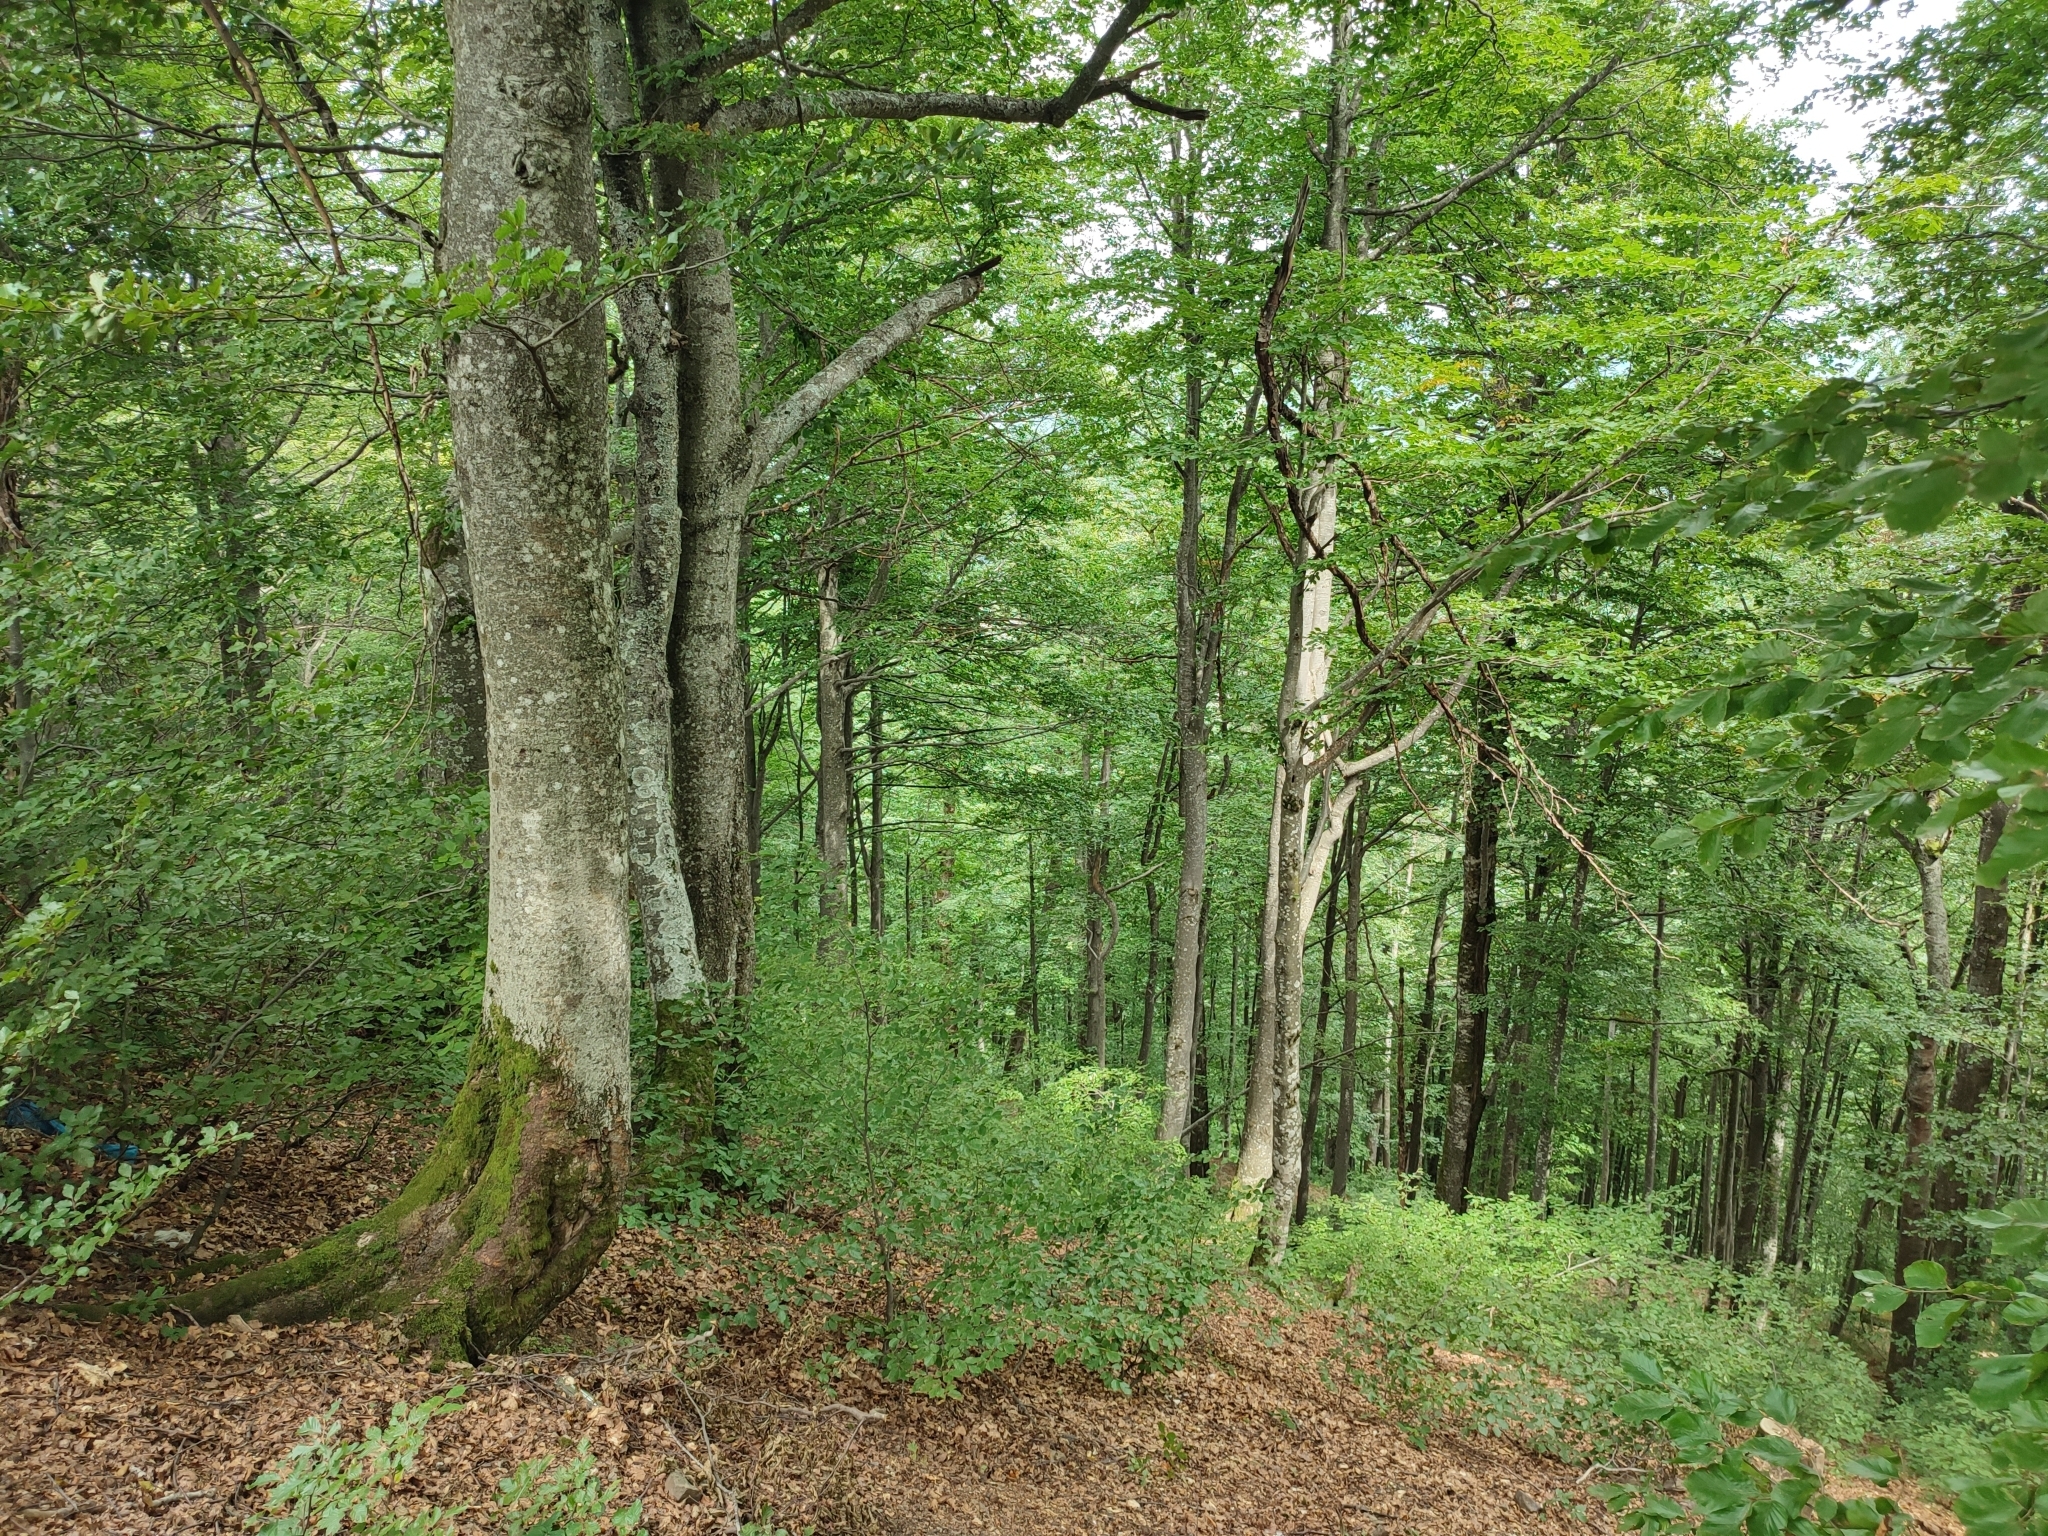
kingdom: Plantae
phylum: Tracheophyta
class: Magnoliopsida
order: Fagales
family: Fagaceae
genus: Fagus
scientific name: Fagus sylvatica
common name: Beech
